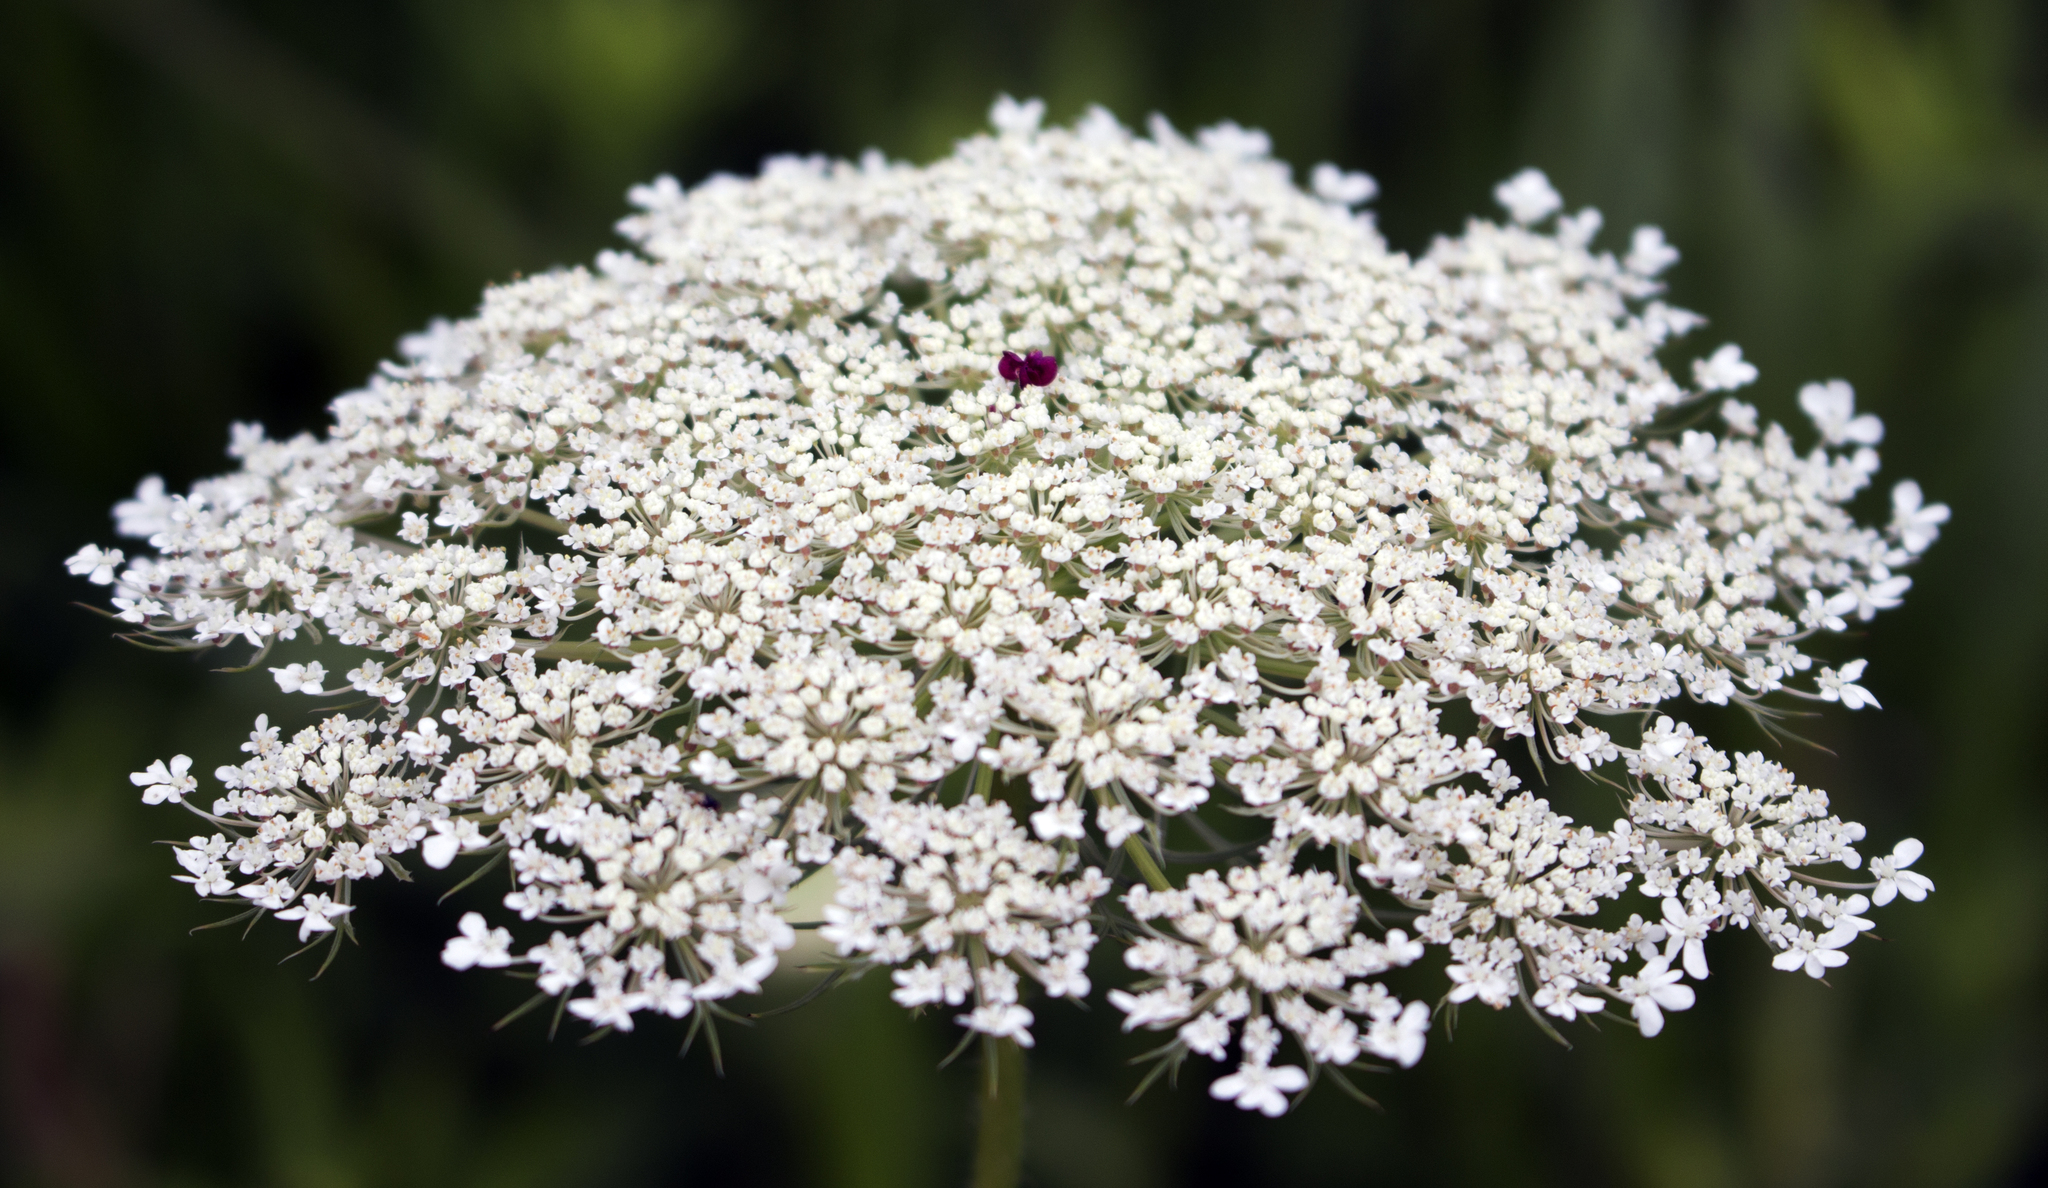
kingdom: Plantae
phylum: Tracheophyta
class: Magnoliopsida
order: Apiales
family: Apiaceae
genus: Daucus
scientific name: Daucus carota
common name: Wild carrot
